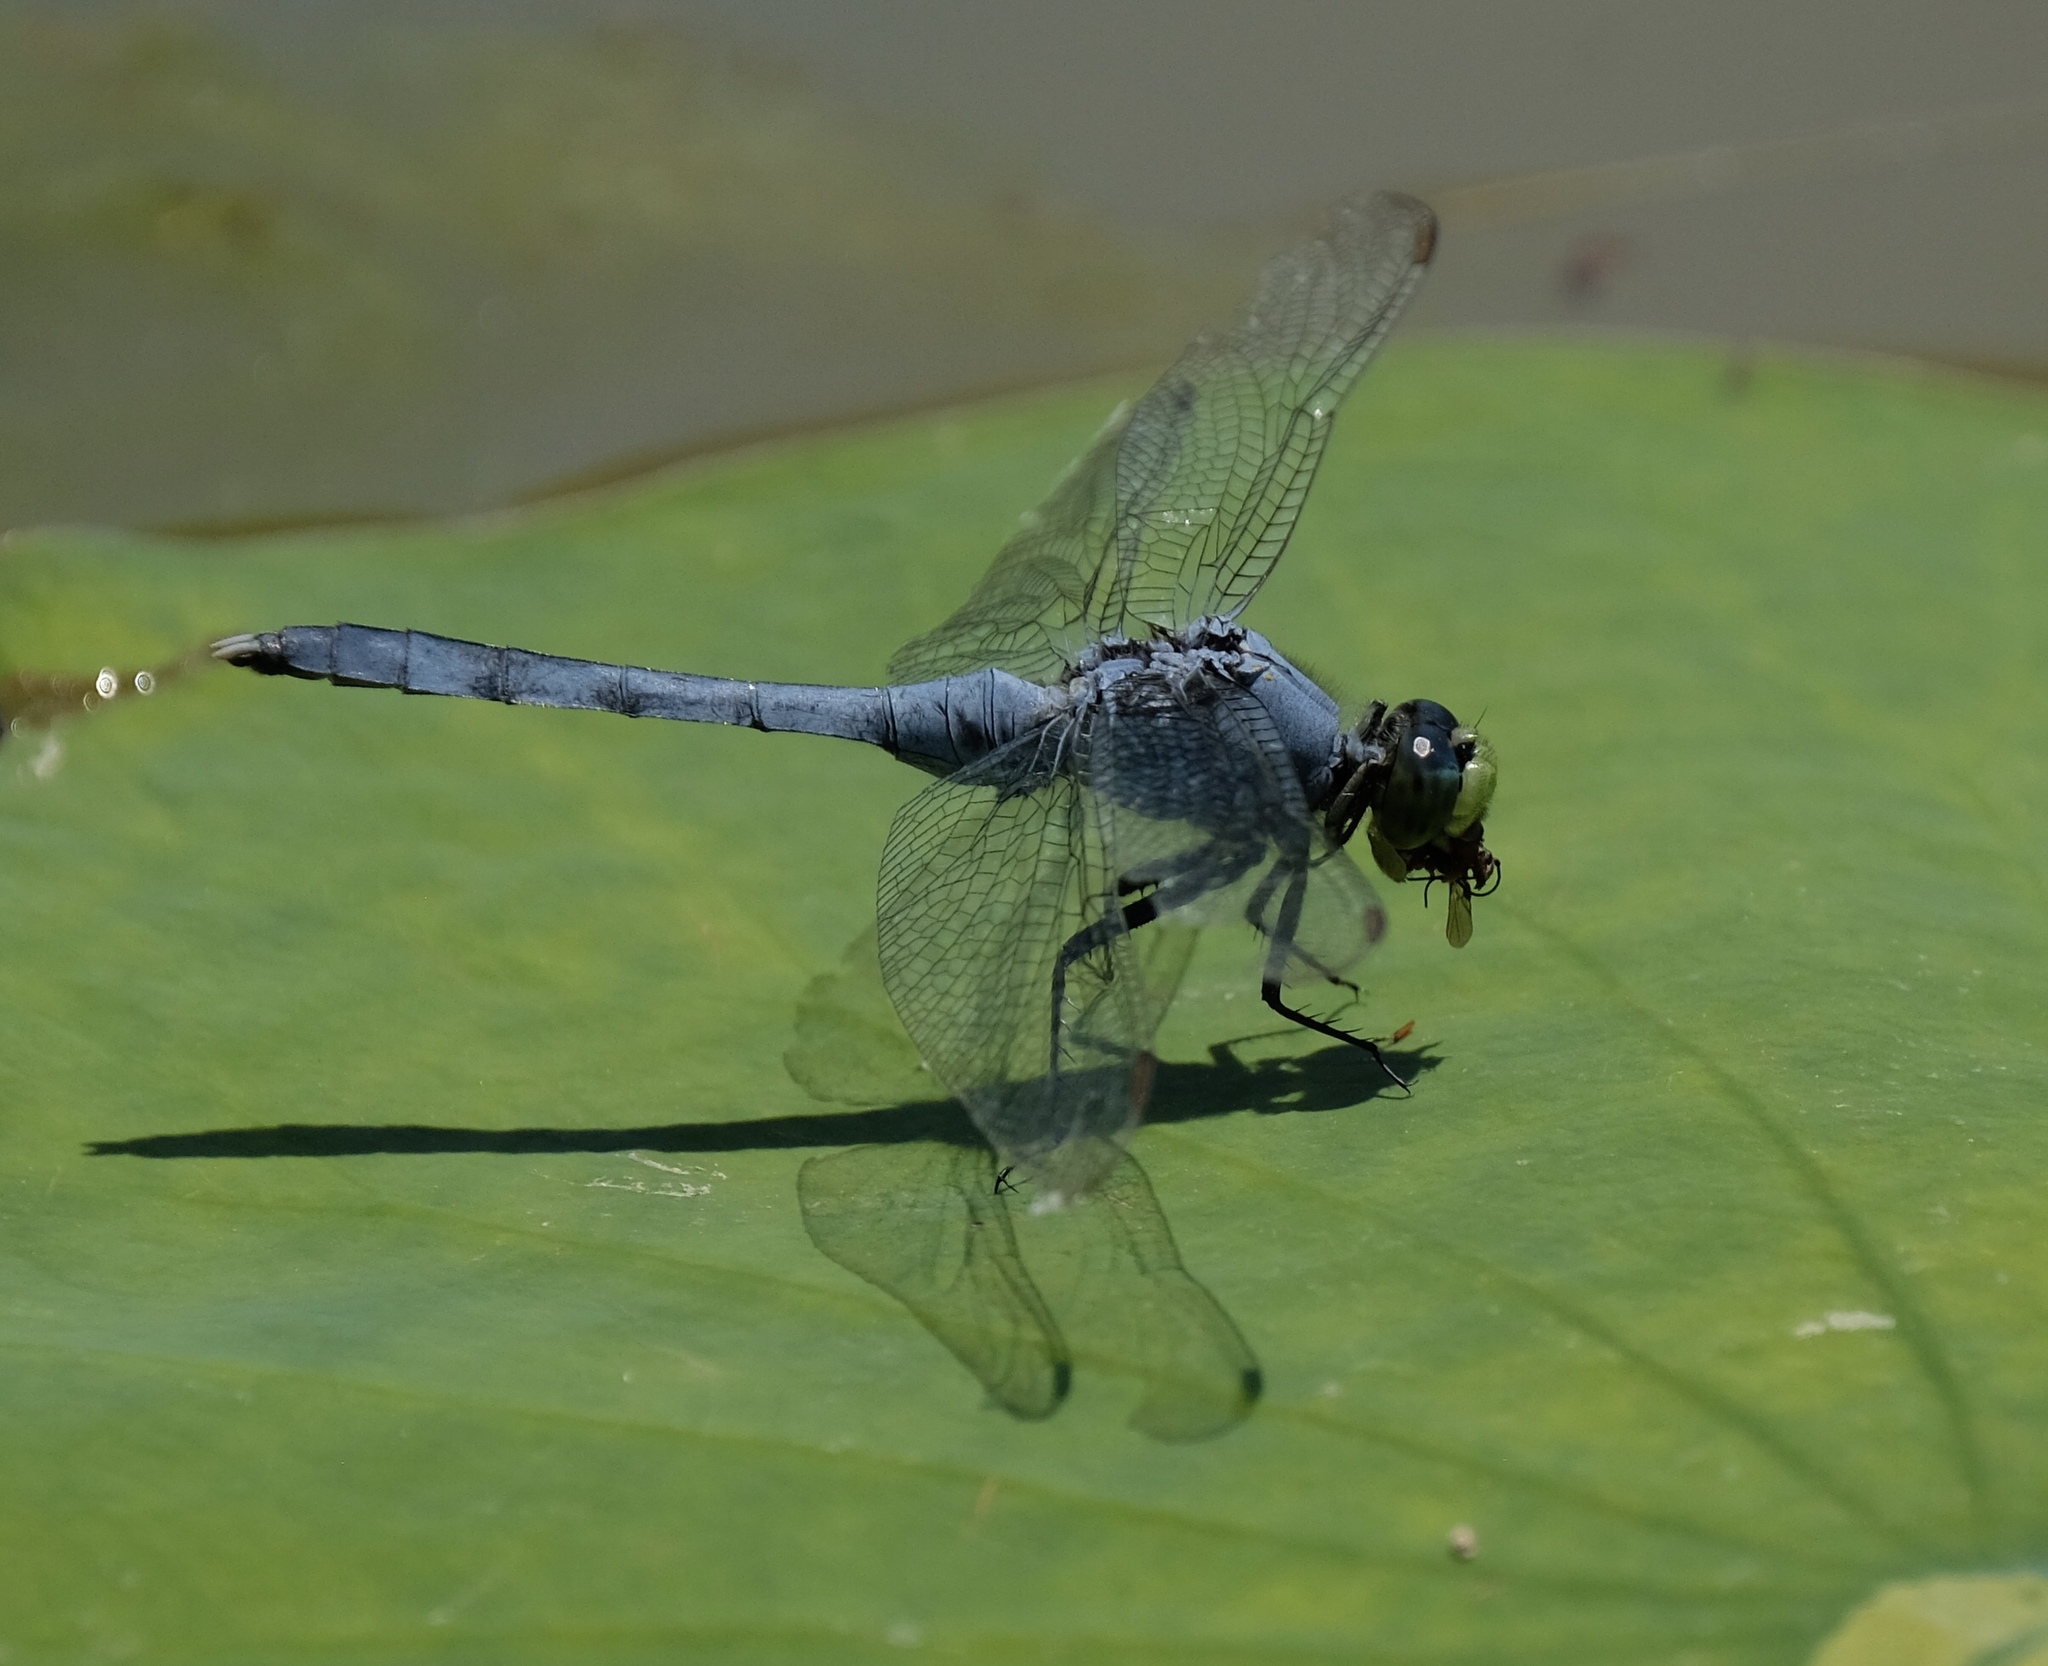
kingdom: Animalia
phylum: Arthropoda
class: Insecta
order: Odonata
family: Libellulidae
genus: Erythemis
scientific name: Erythemis simplicicollis
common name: Eastern pondhawk
